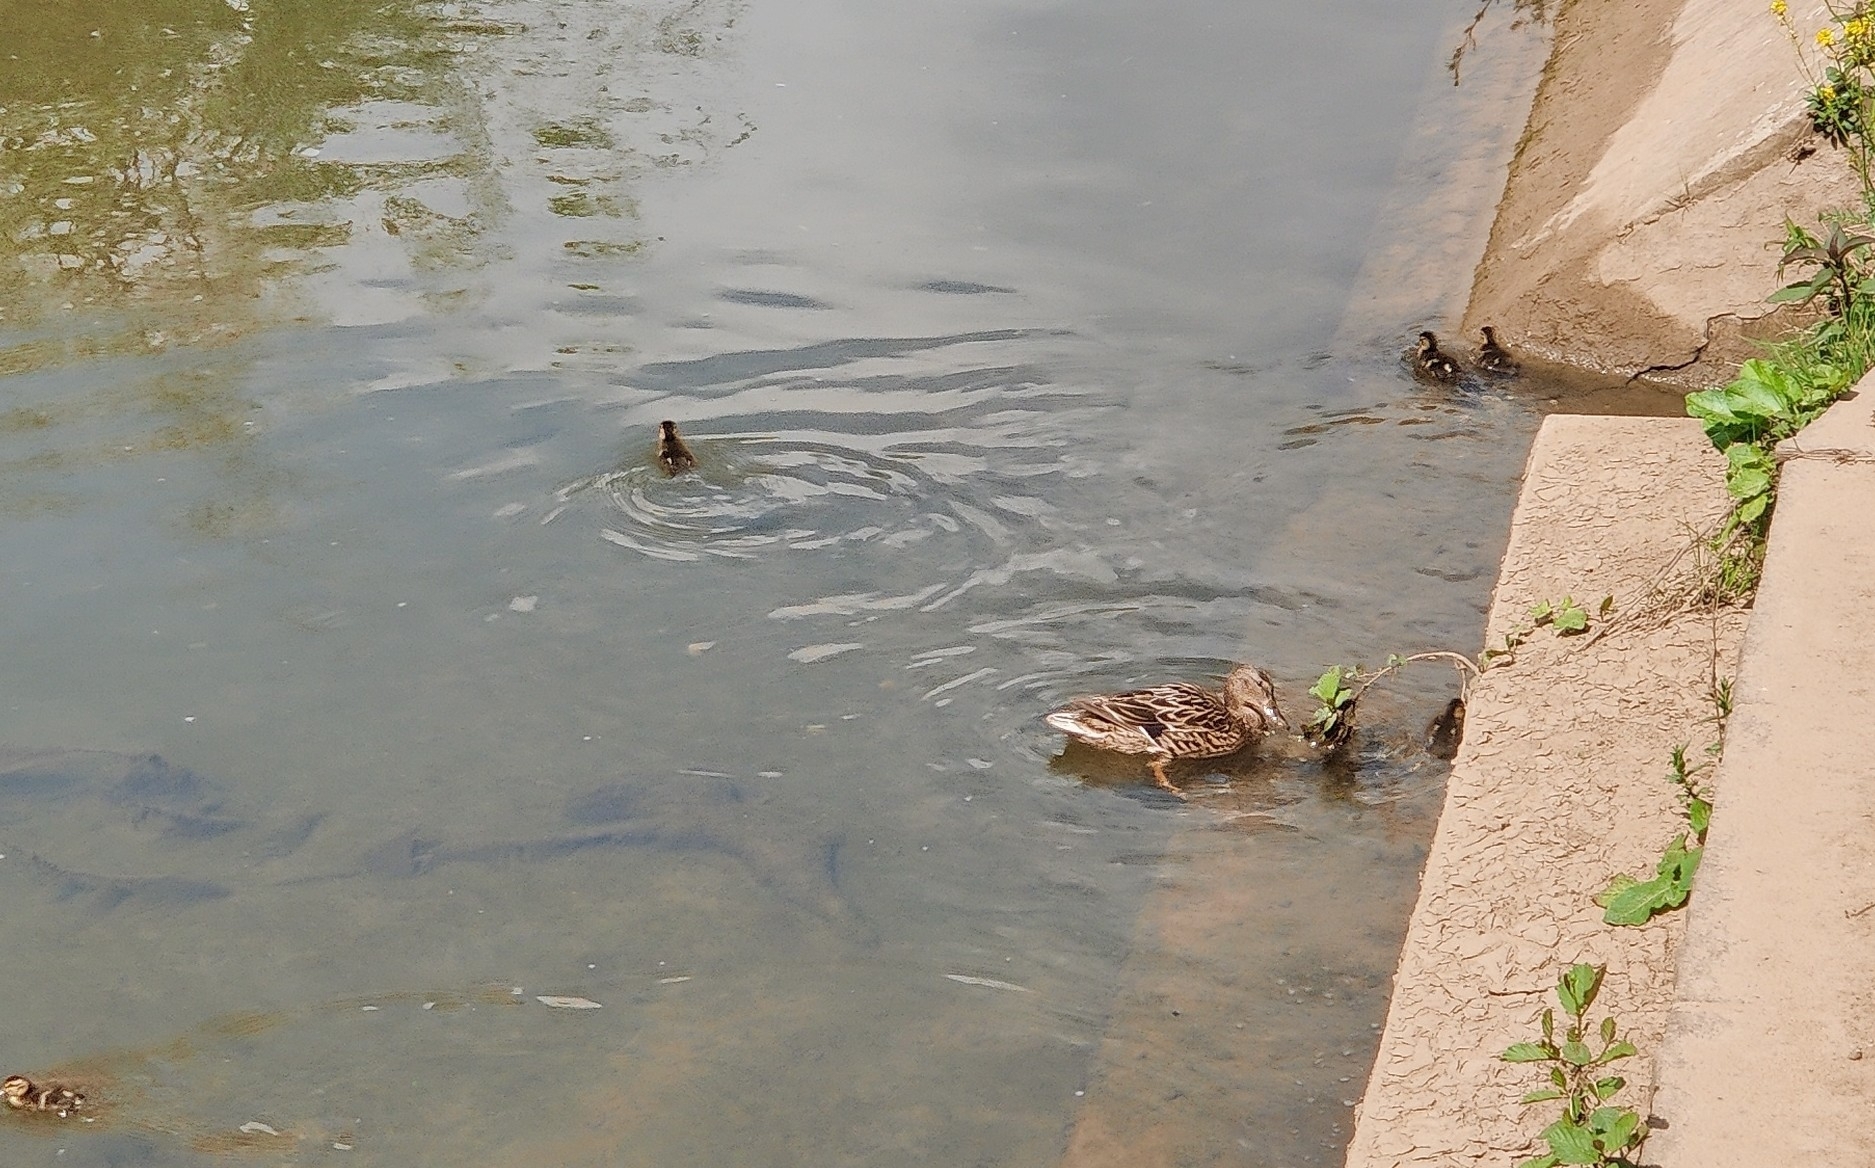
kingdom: Animalia
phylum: Chordata
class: Aves
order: Anseriformes
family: Anatidae
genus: Anas
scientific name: Anas platyrhynchos
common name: Mallard
